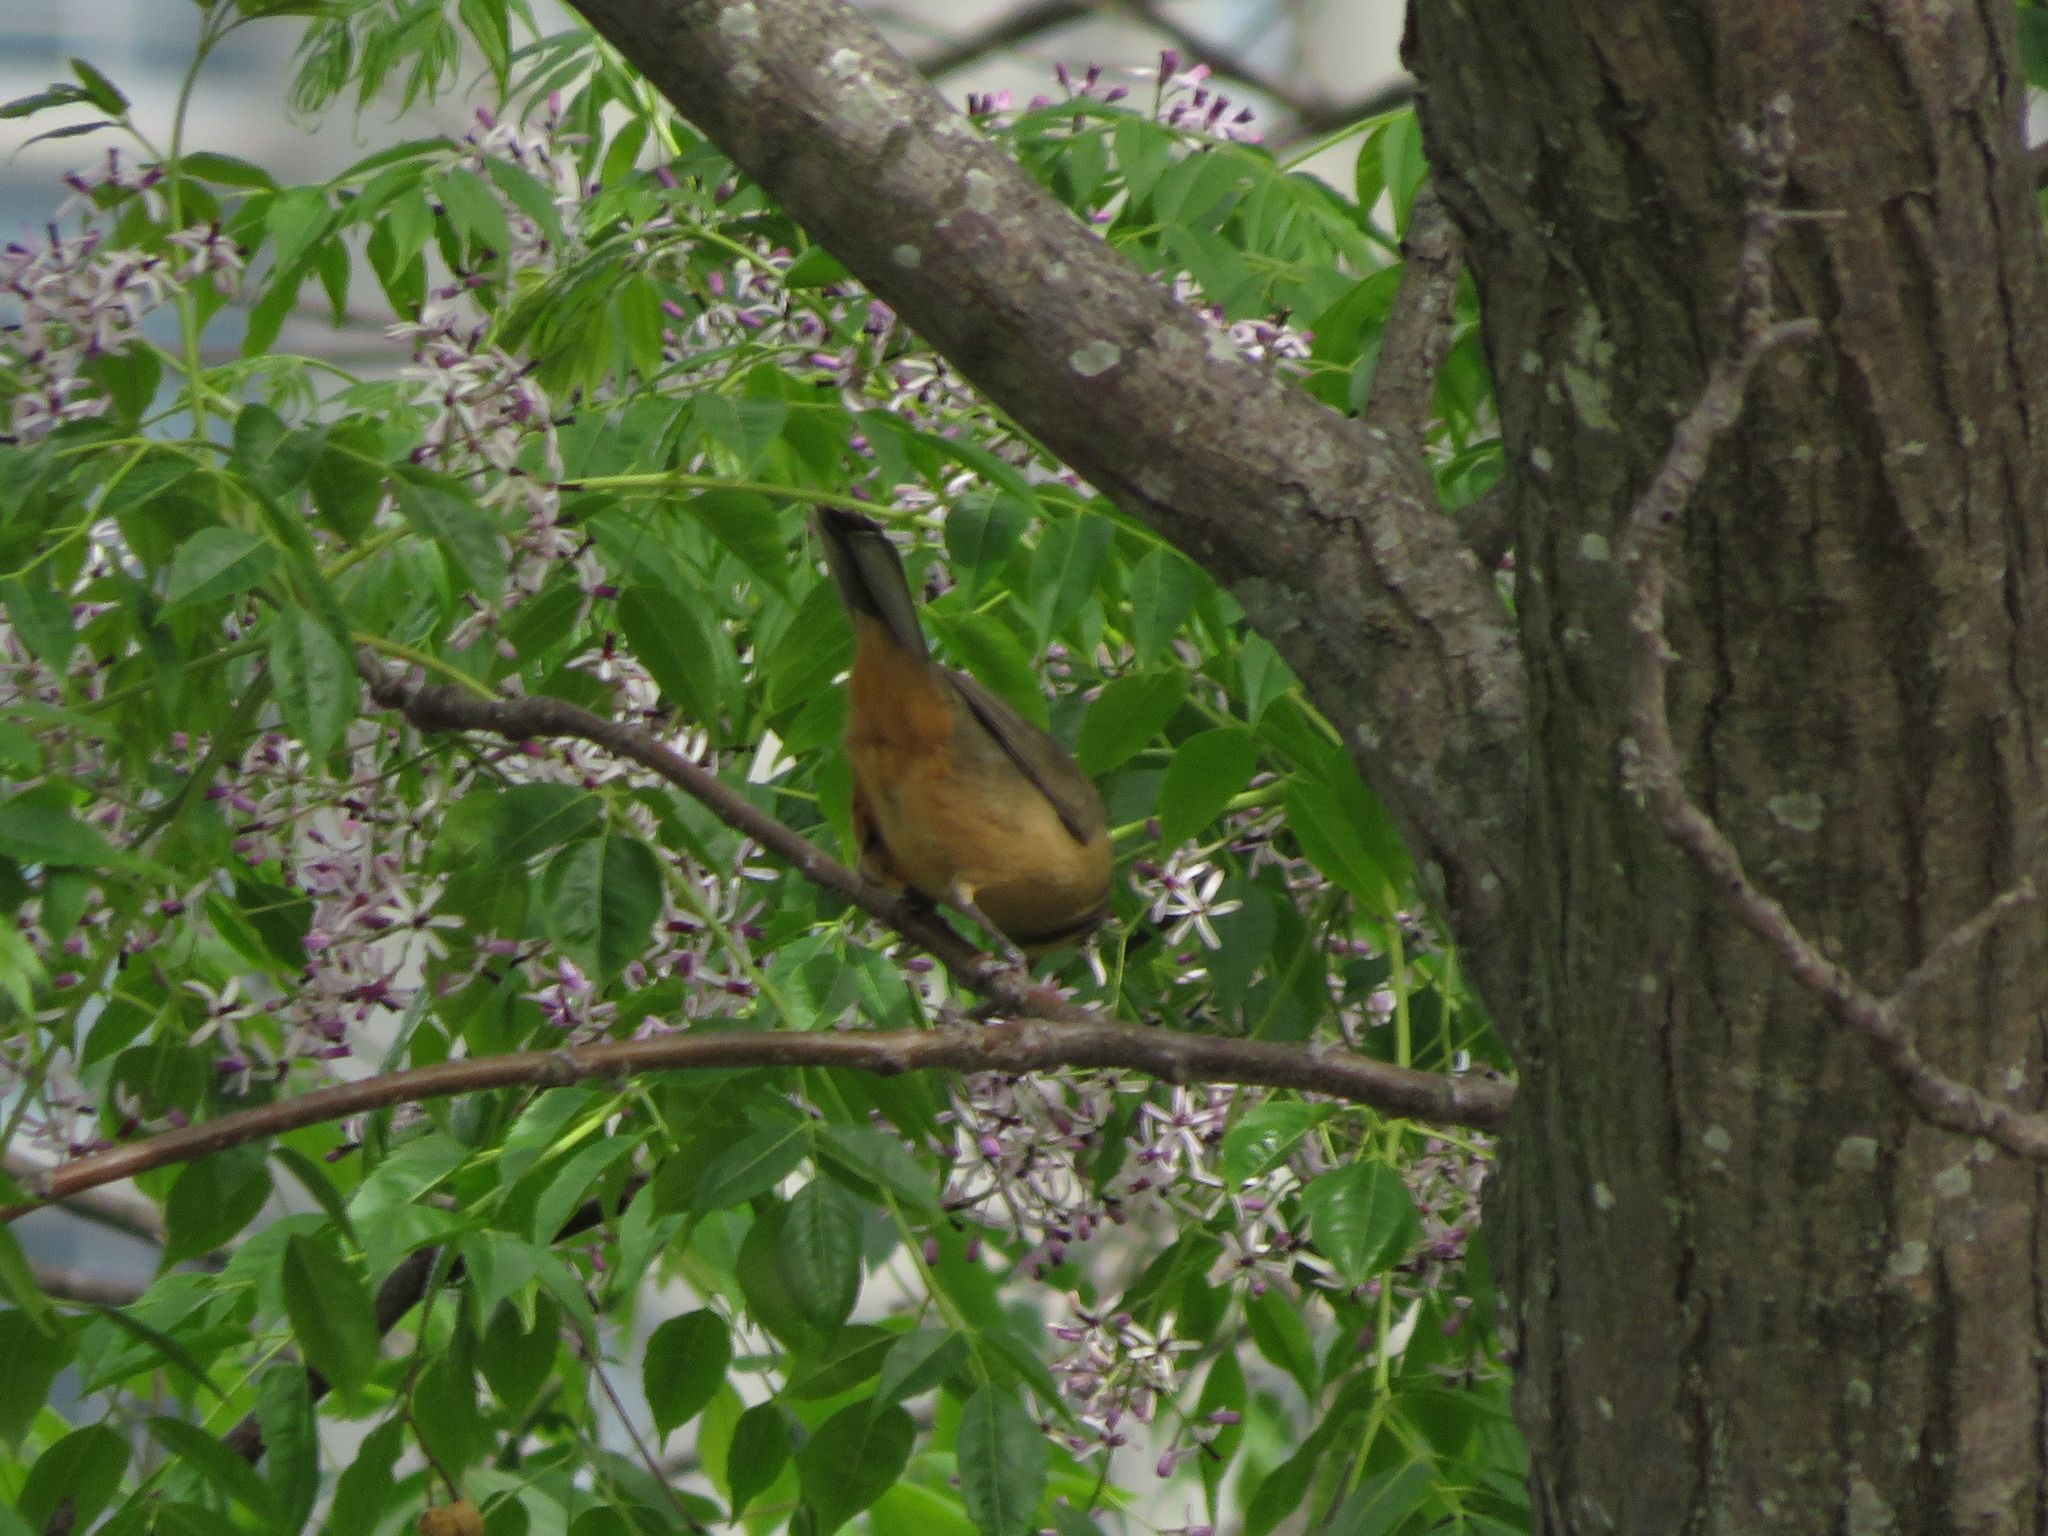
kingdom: Animalia
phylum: Chordata
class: Aves
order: Passeriformes
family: Thraupidae
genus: Saltator
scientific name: Saltator aurantiirostris
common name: Golden-billed saltator
